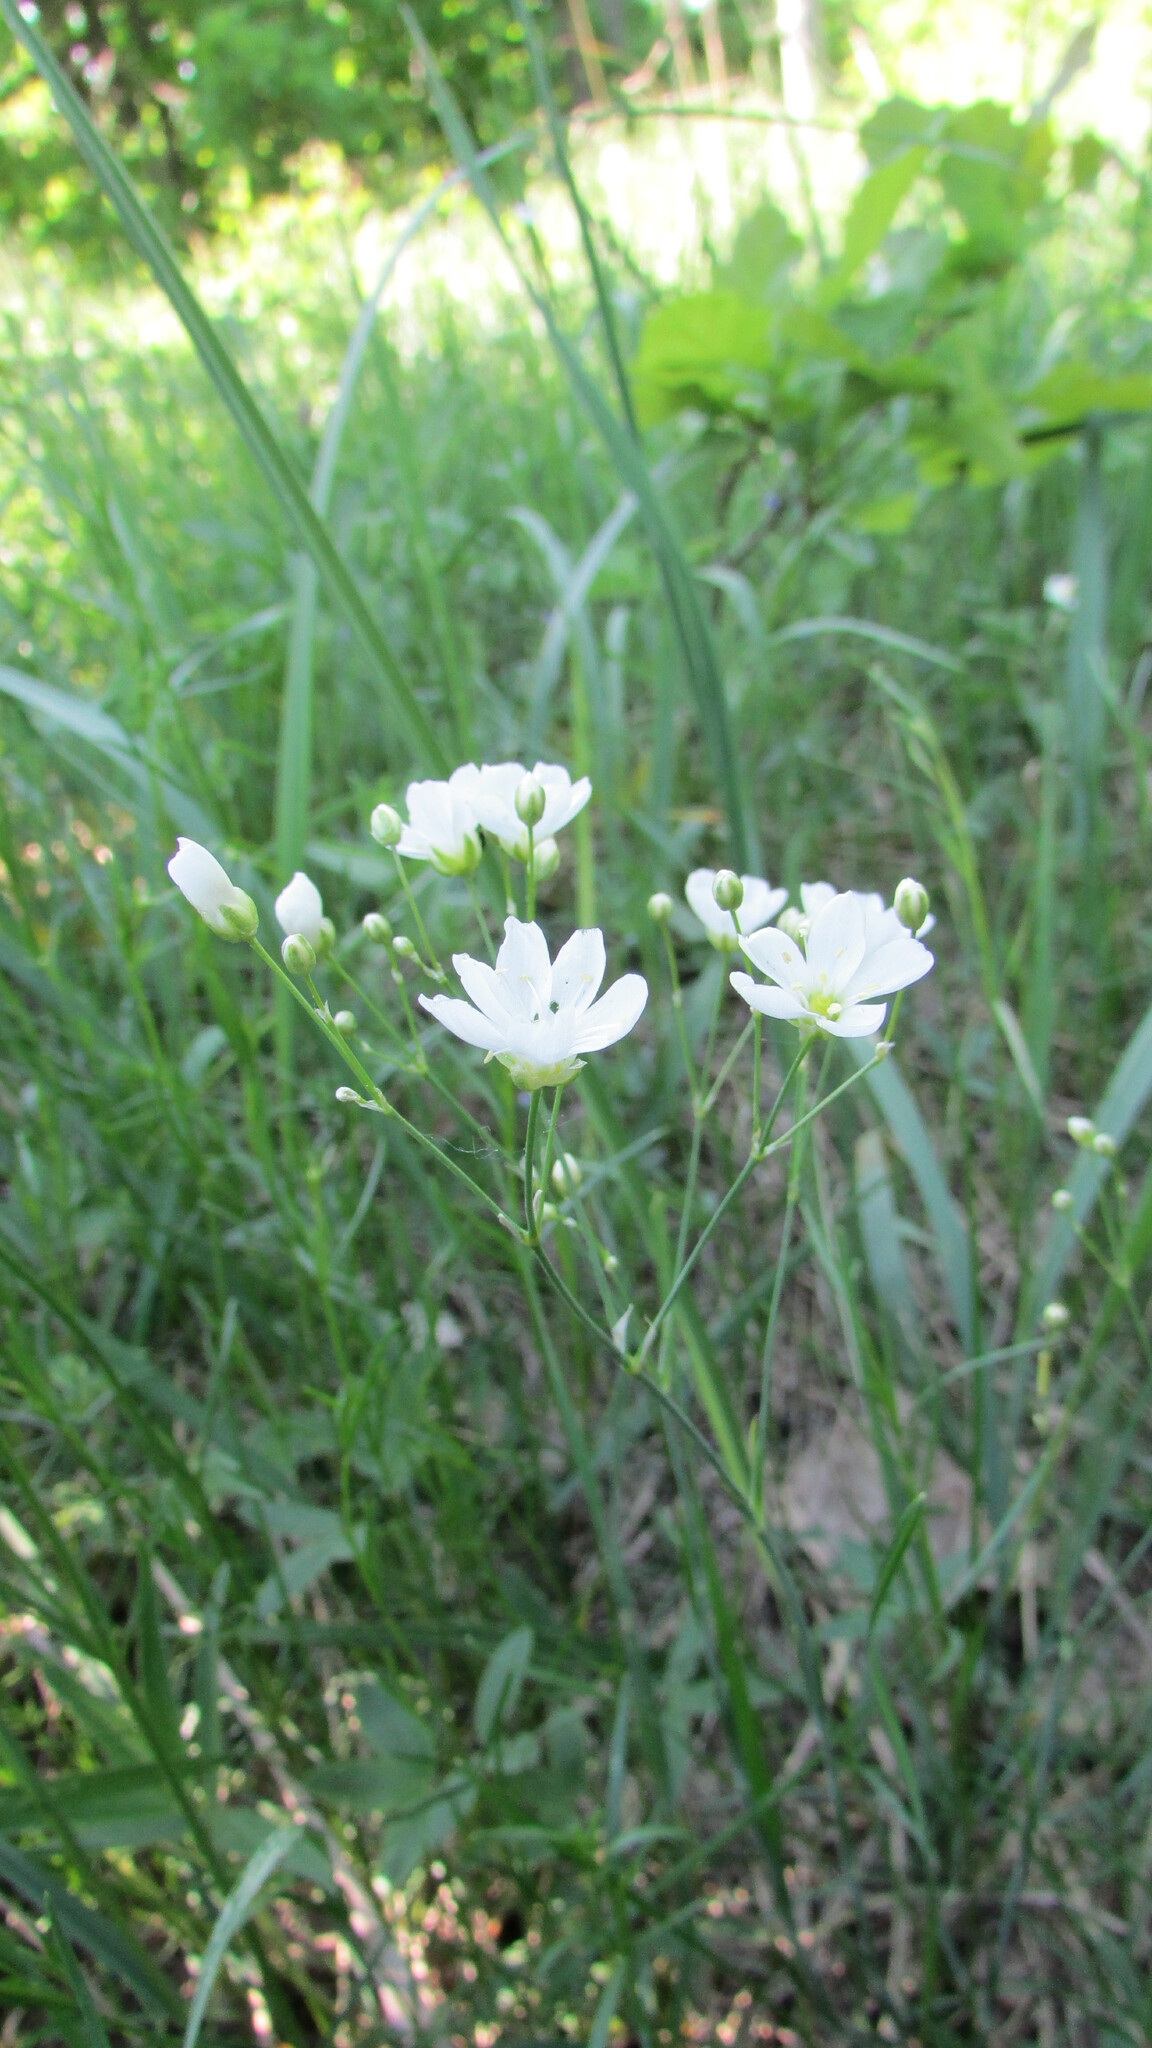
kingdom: Plantae
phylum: Tracheophyta
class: Magnoliopsida
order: Caryophyllales
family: Caryophyllaceae
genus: Eremogone
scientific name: Eremogone saxatilis
